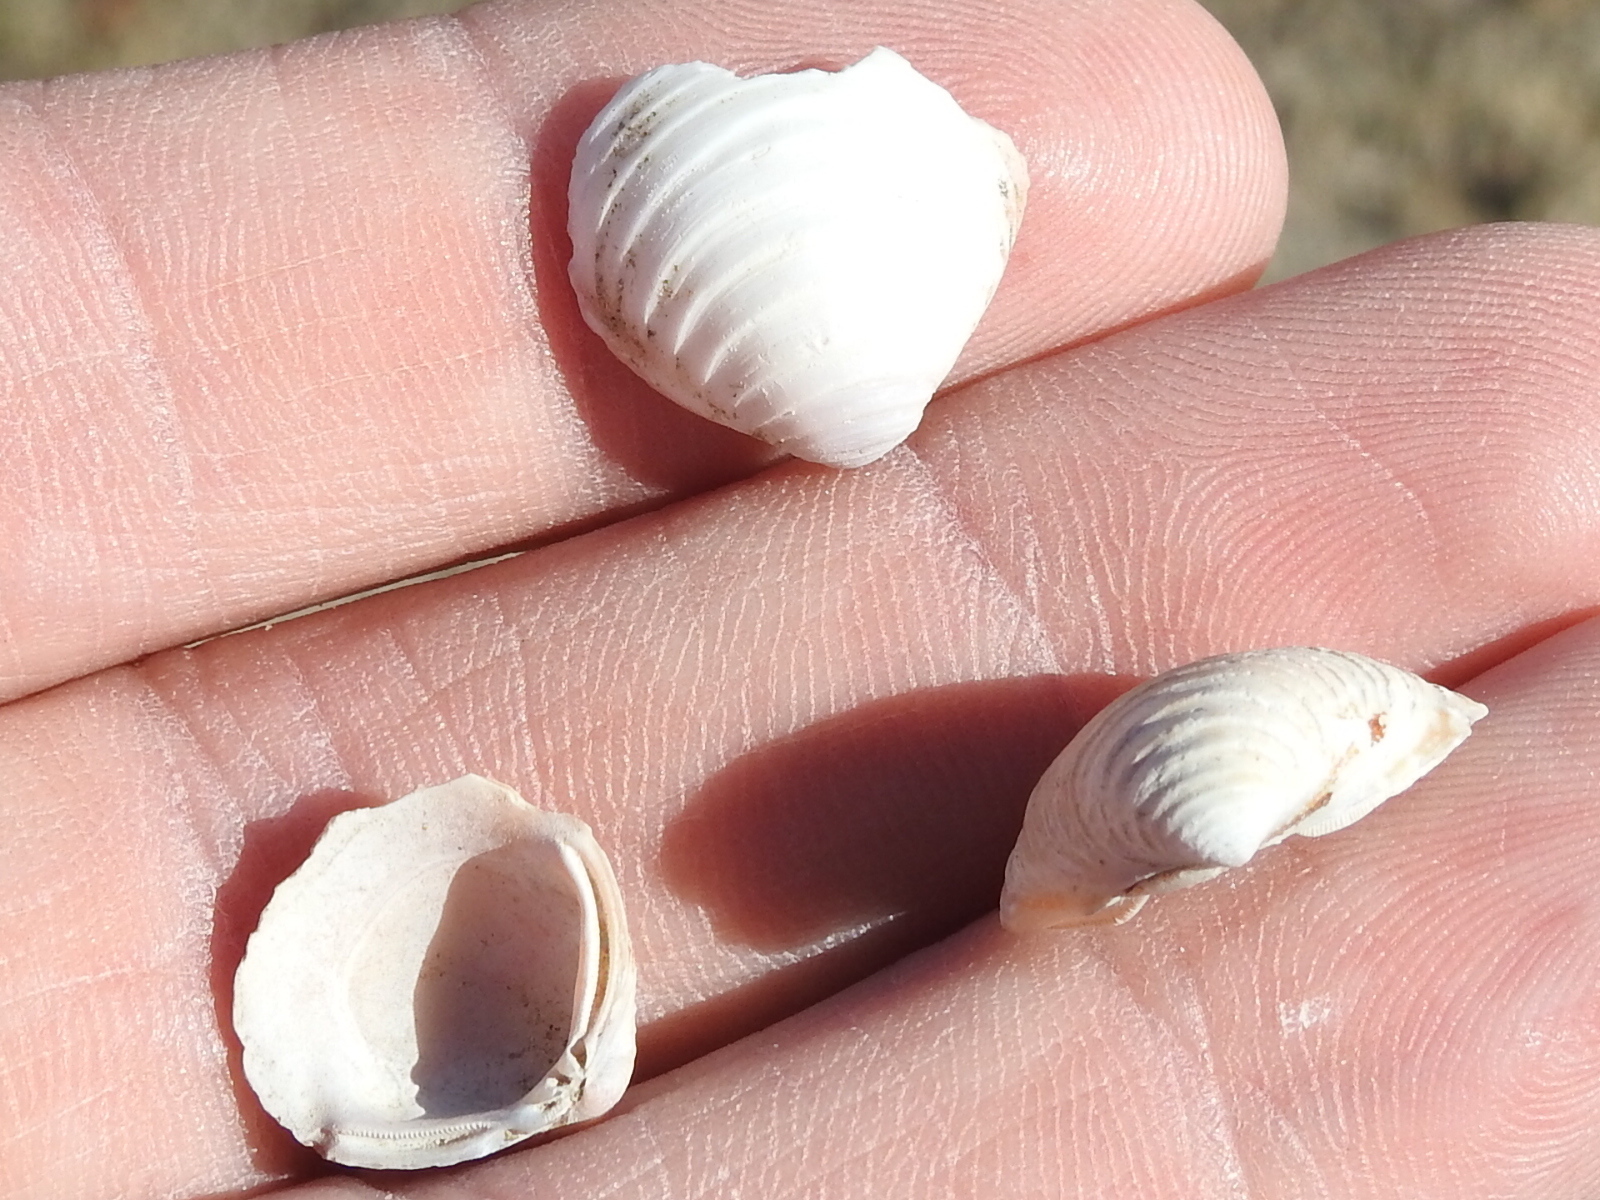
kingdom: Animalia
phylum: Mollusca
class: Bivalvia
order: Venerida
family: Cyrenidae
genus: Corbicula
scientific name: Corbicula fluminea
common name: Asian clam
